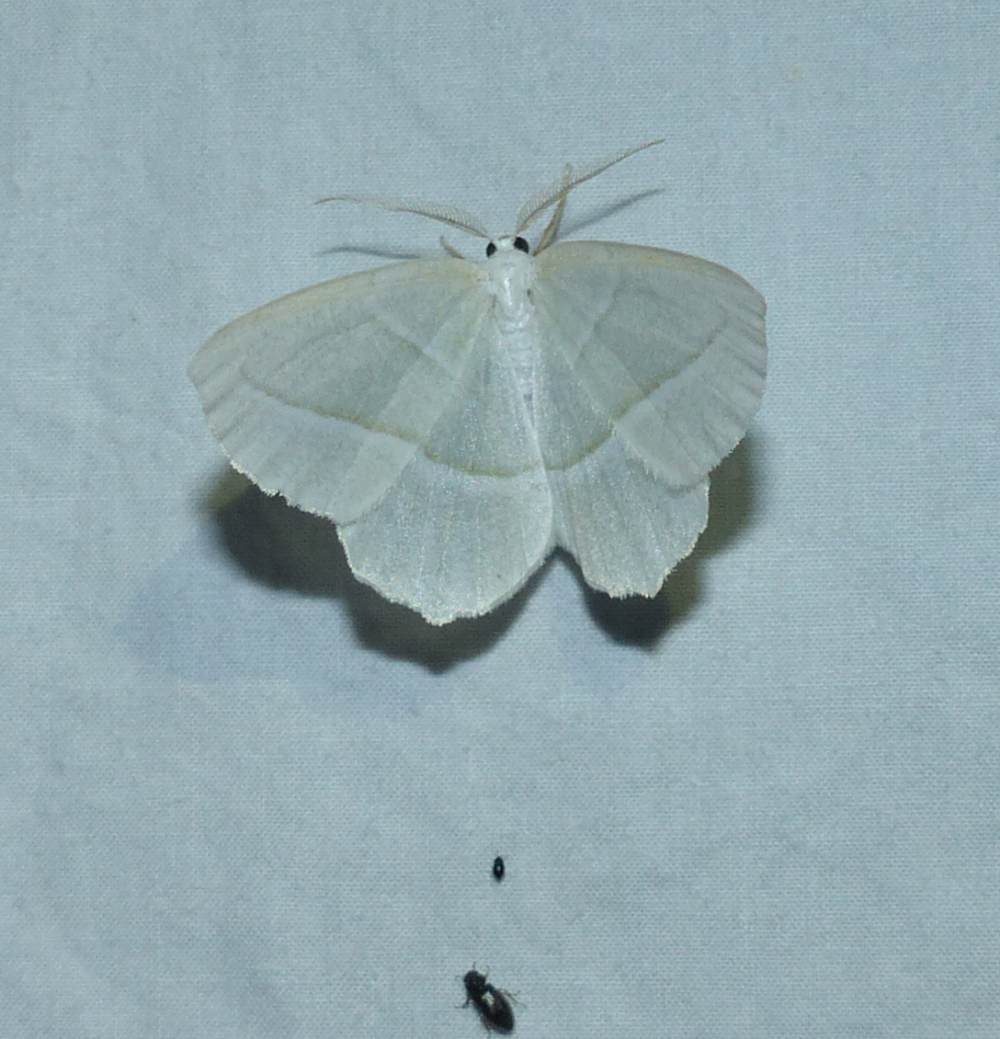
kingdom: Animalia
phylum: Arthropoda
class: Insecta
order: Lepidoptera
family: Geometridae
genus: Campaea
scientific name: Campaea perlata
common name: Fringed looper
